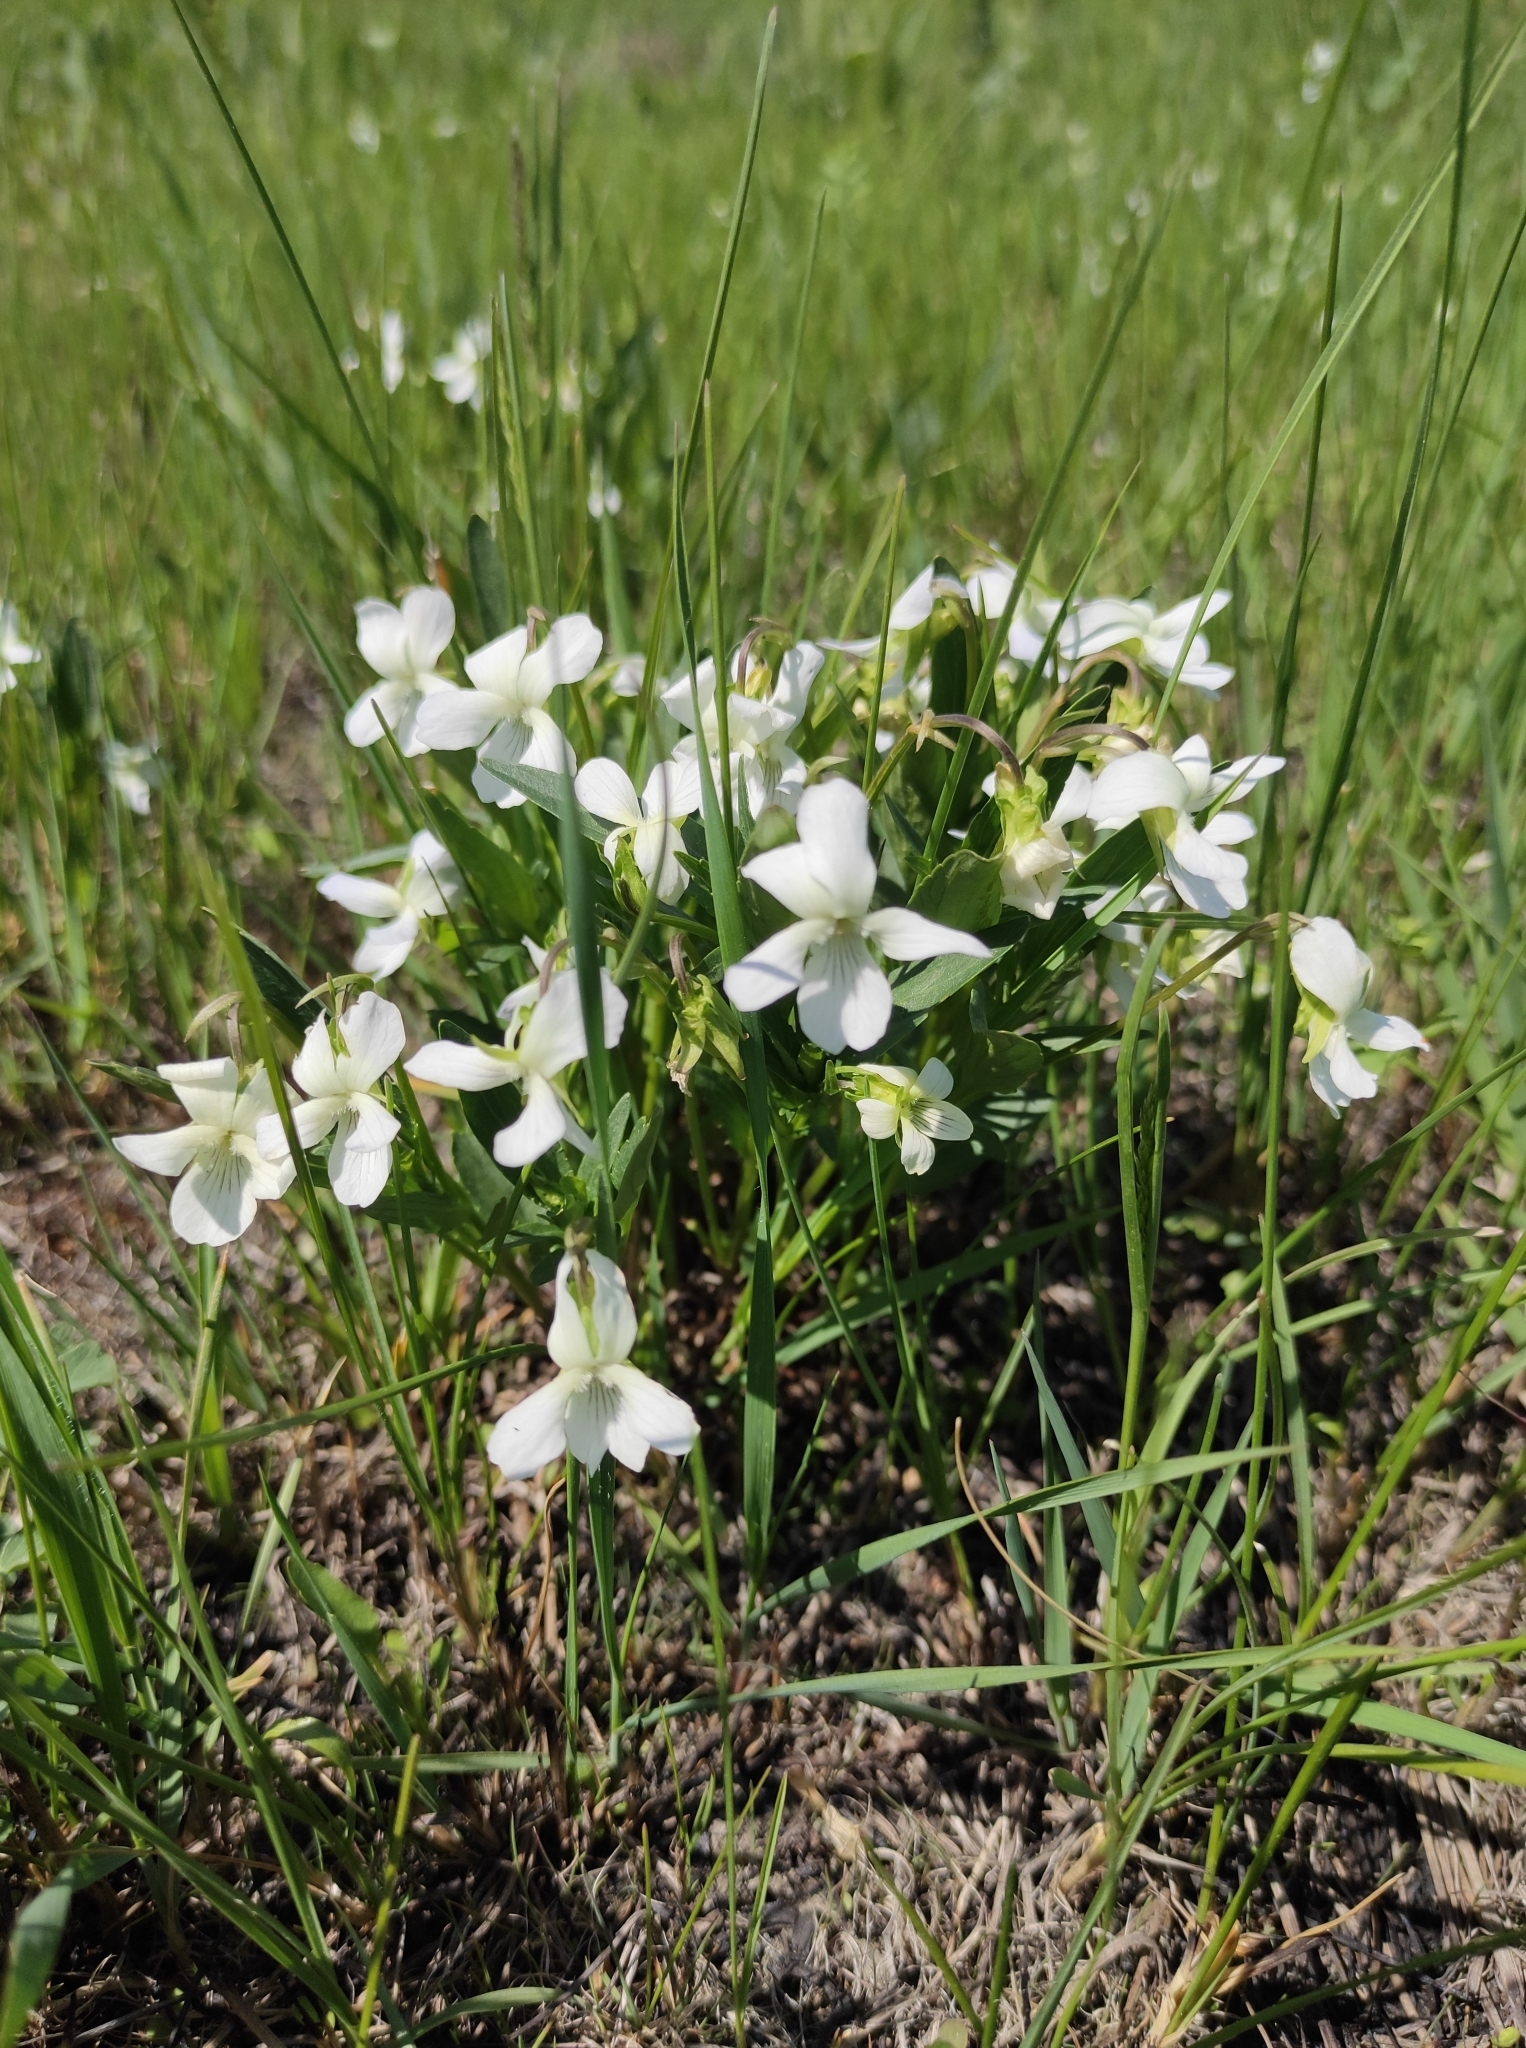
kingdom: Plantae
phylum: Tracheophyta
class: Magnoliopsida
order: Malpighiales
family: Violaceae
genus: Viola
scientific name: Viola patrinii
